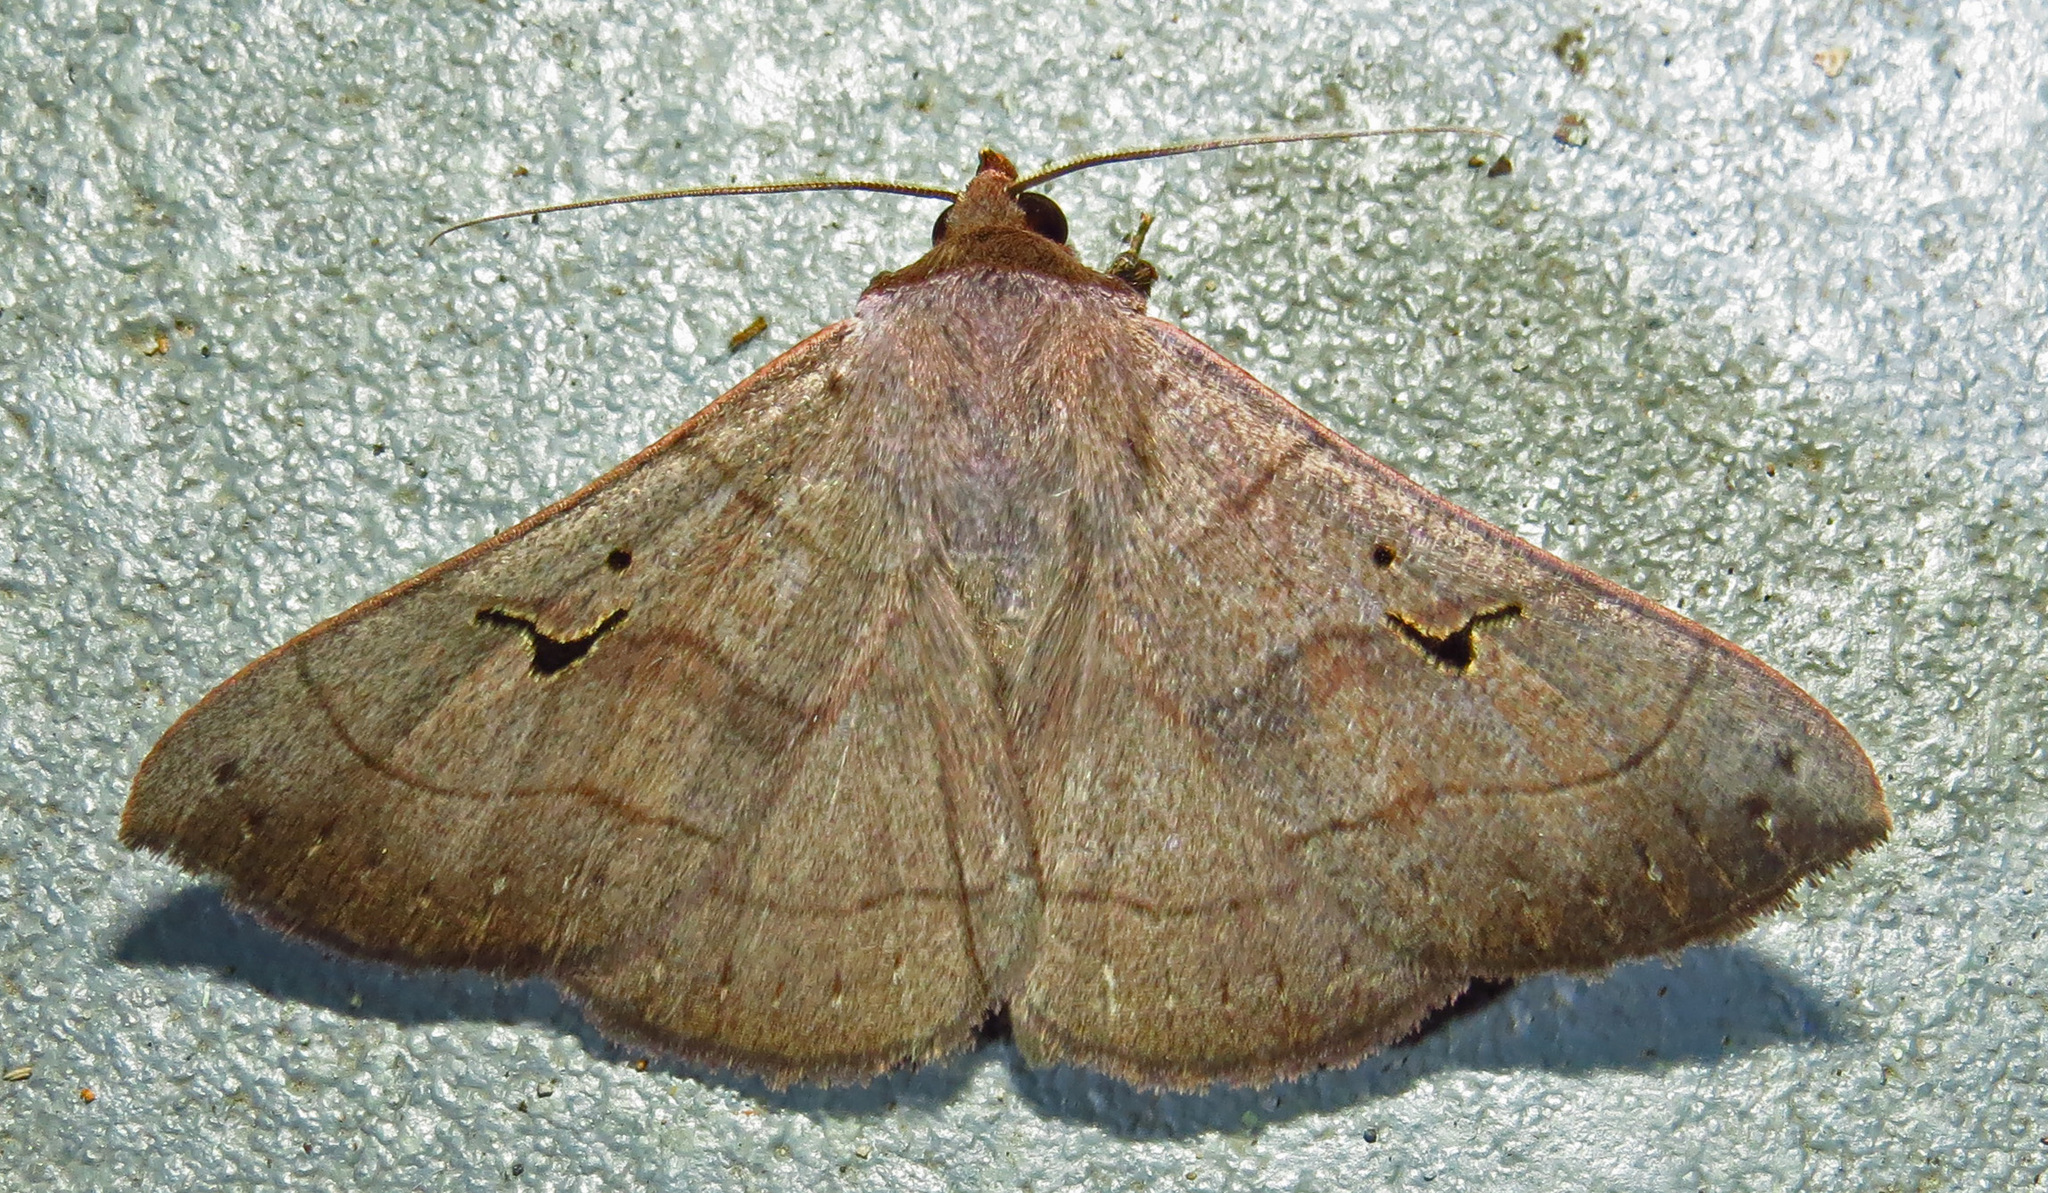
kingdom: Animalia
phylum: Arthropoda
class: Insecta
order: Lepidoptera
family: Erebidae
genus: Panopoda
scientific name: Panopoda carneicosta
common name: Brown panopoda moth
